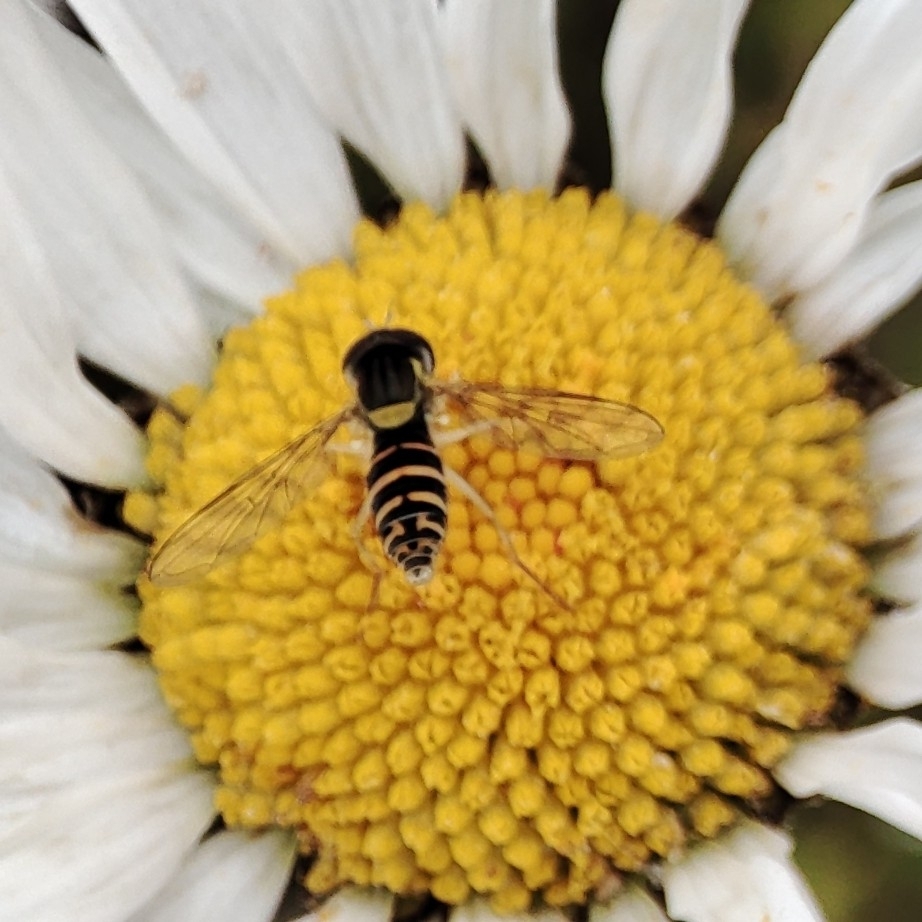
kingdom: Animalia
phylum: Arthropoda
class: Insecta
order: Diptera
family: Syrphidae
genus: Sphaerophoria
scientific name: Sphaerophoria
